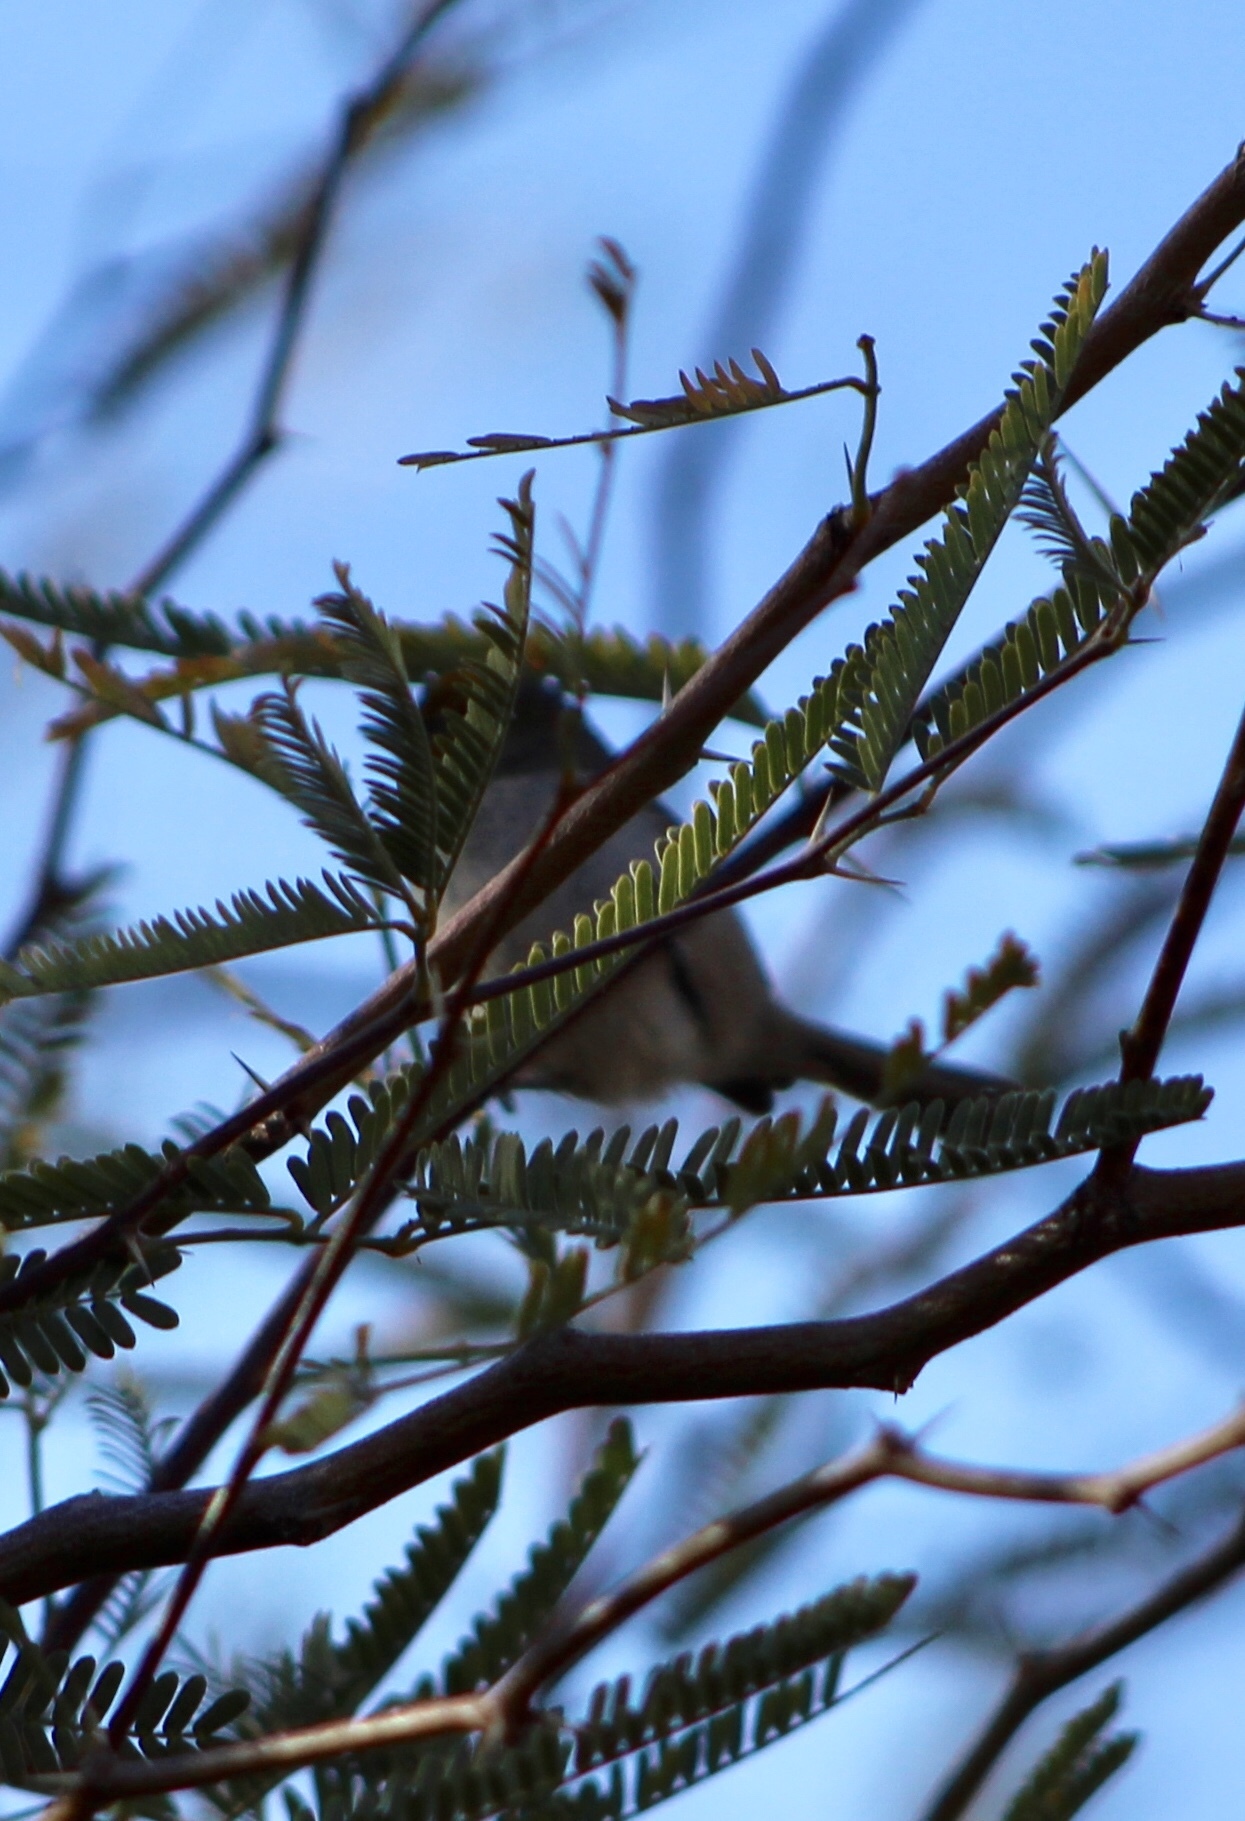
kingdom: Animalia
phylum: Chordata
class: Aves
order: Passeriformes
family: Remizidae
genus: Auriparus
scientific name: Auriparus flaviceps
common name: Verdin
